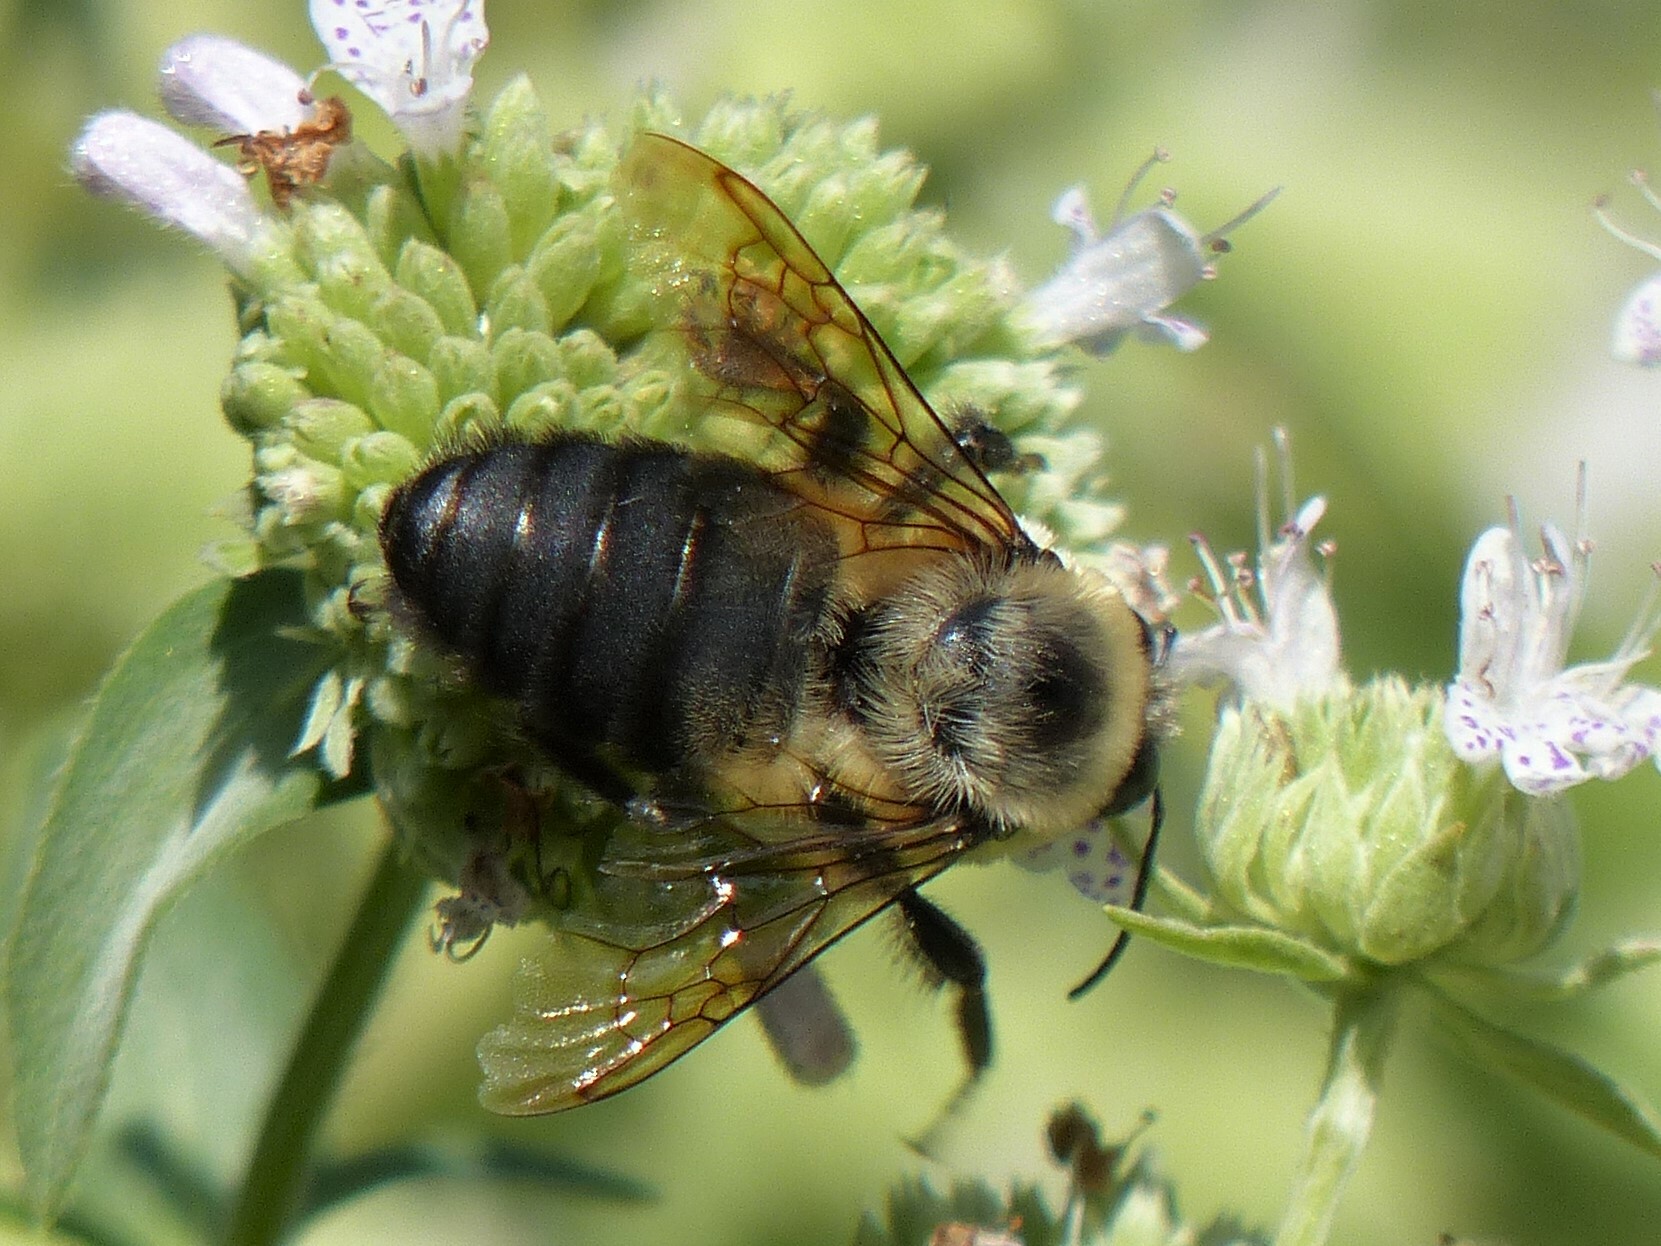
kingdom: Animalia
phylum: Arthropoda
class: Insecta
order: Hymenoptera
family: Apidae
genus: Bombus
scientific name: Bombus griseocollis
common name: Brown-belted bumble bee
